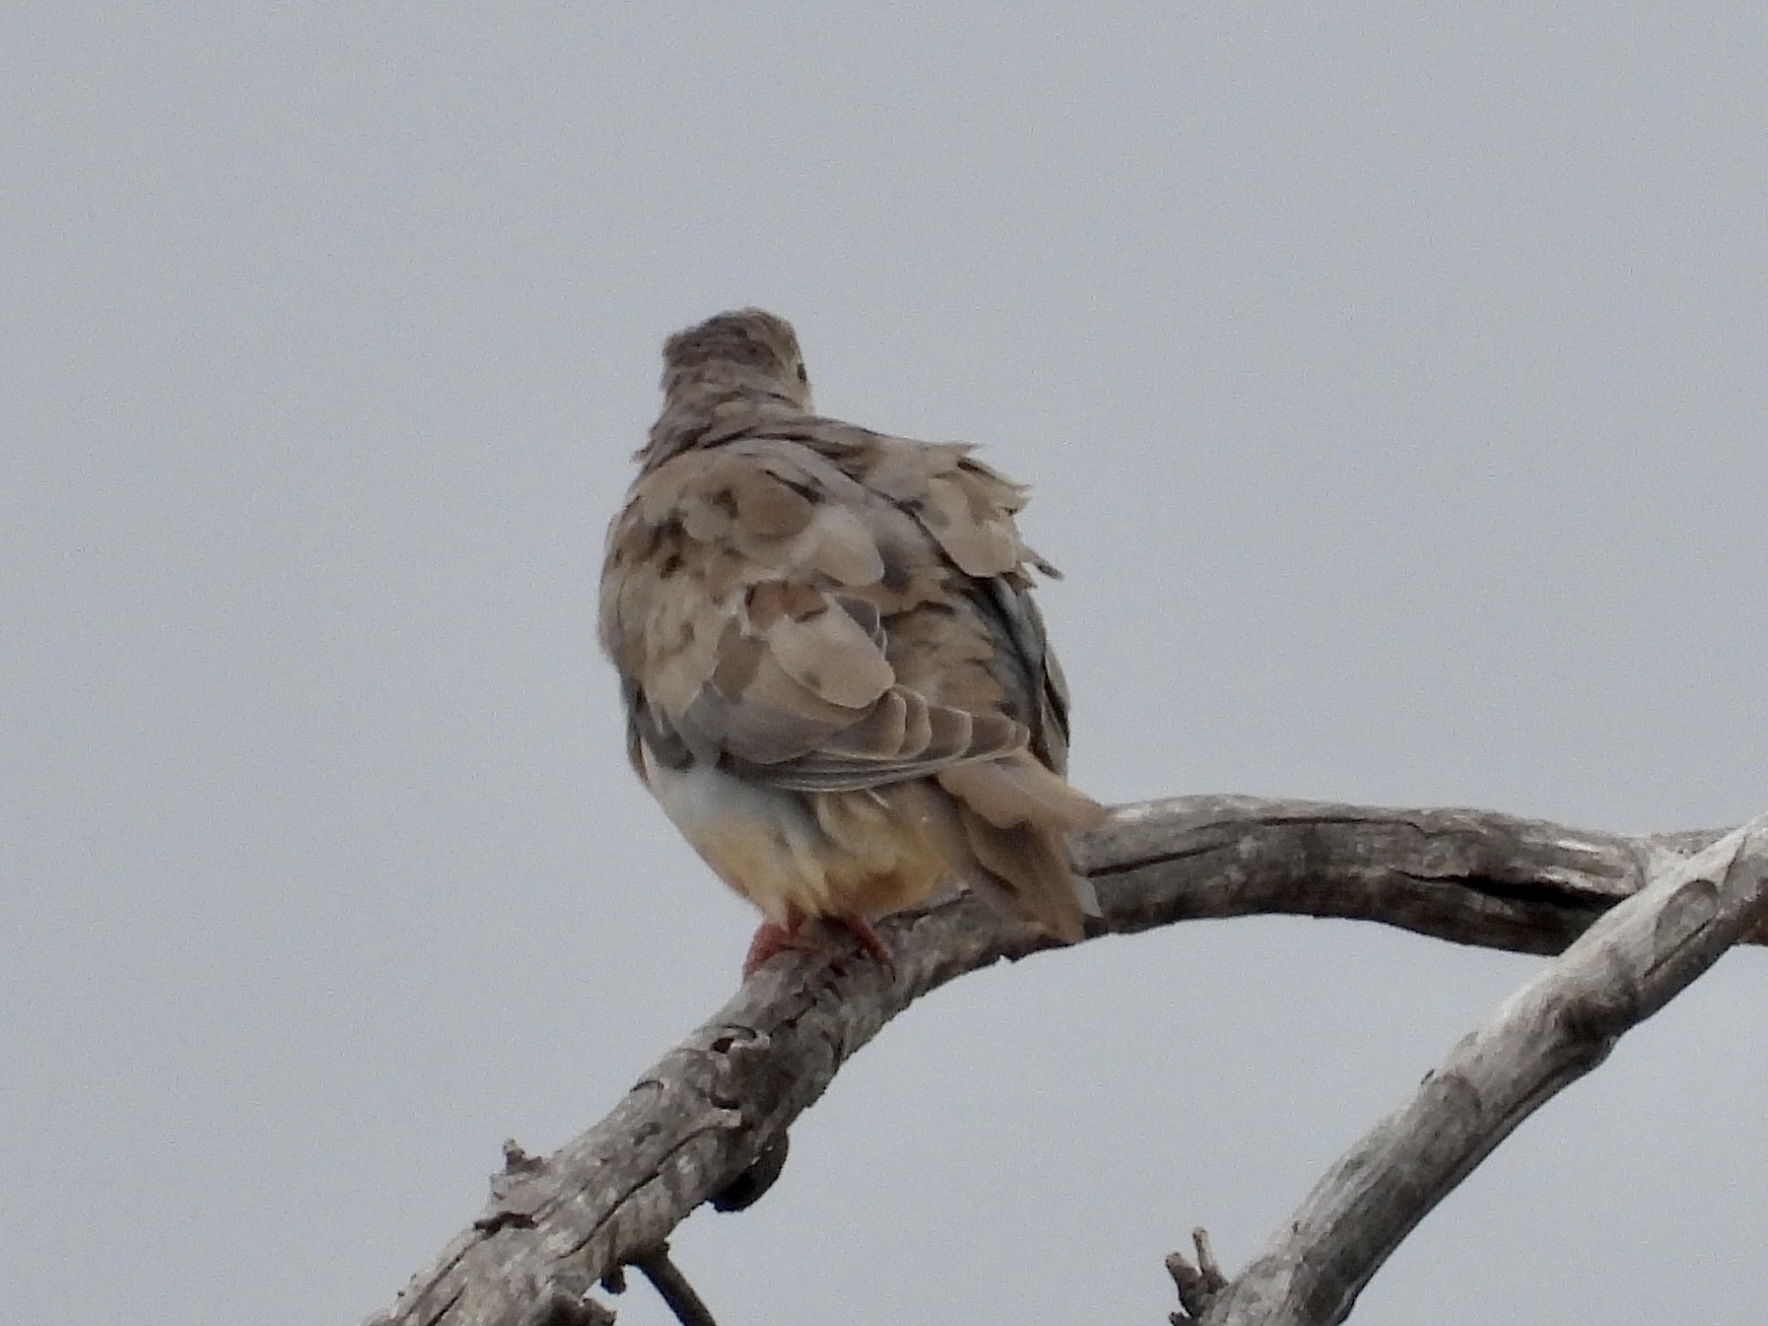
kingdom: Animalia
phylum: Chordata
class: Aves
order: Columbiformes
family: Columbidae
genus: Zenaida
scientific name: Zenaida macroura
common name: Mourning dove
